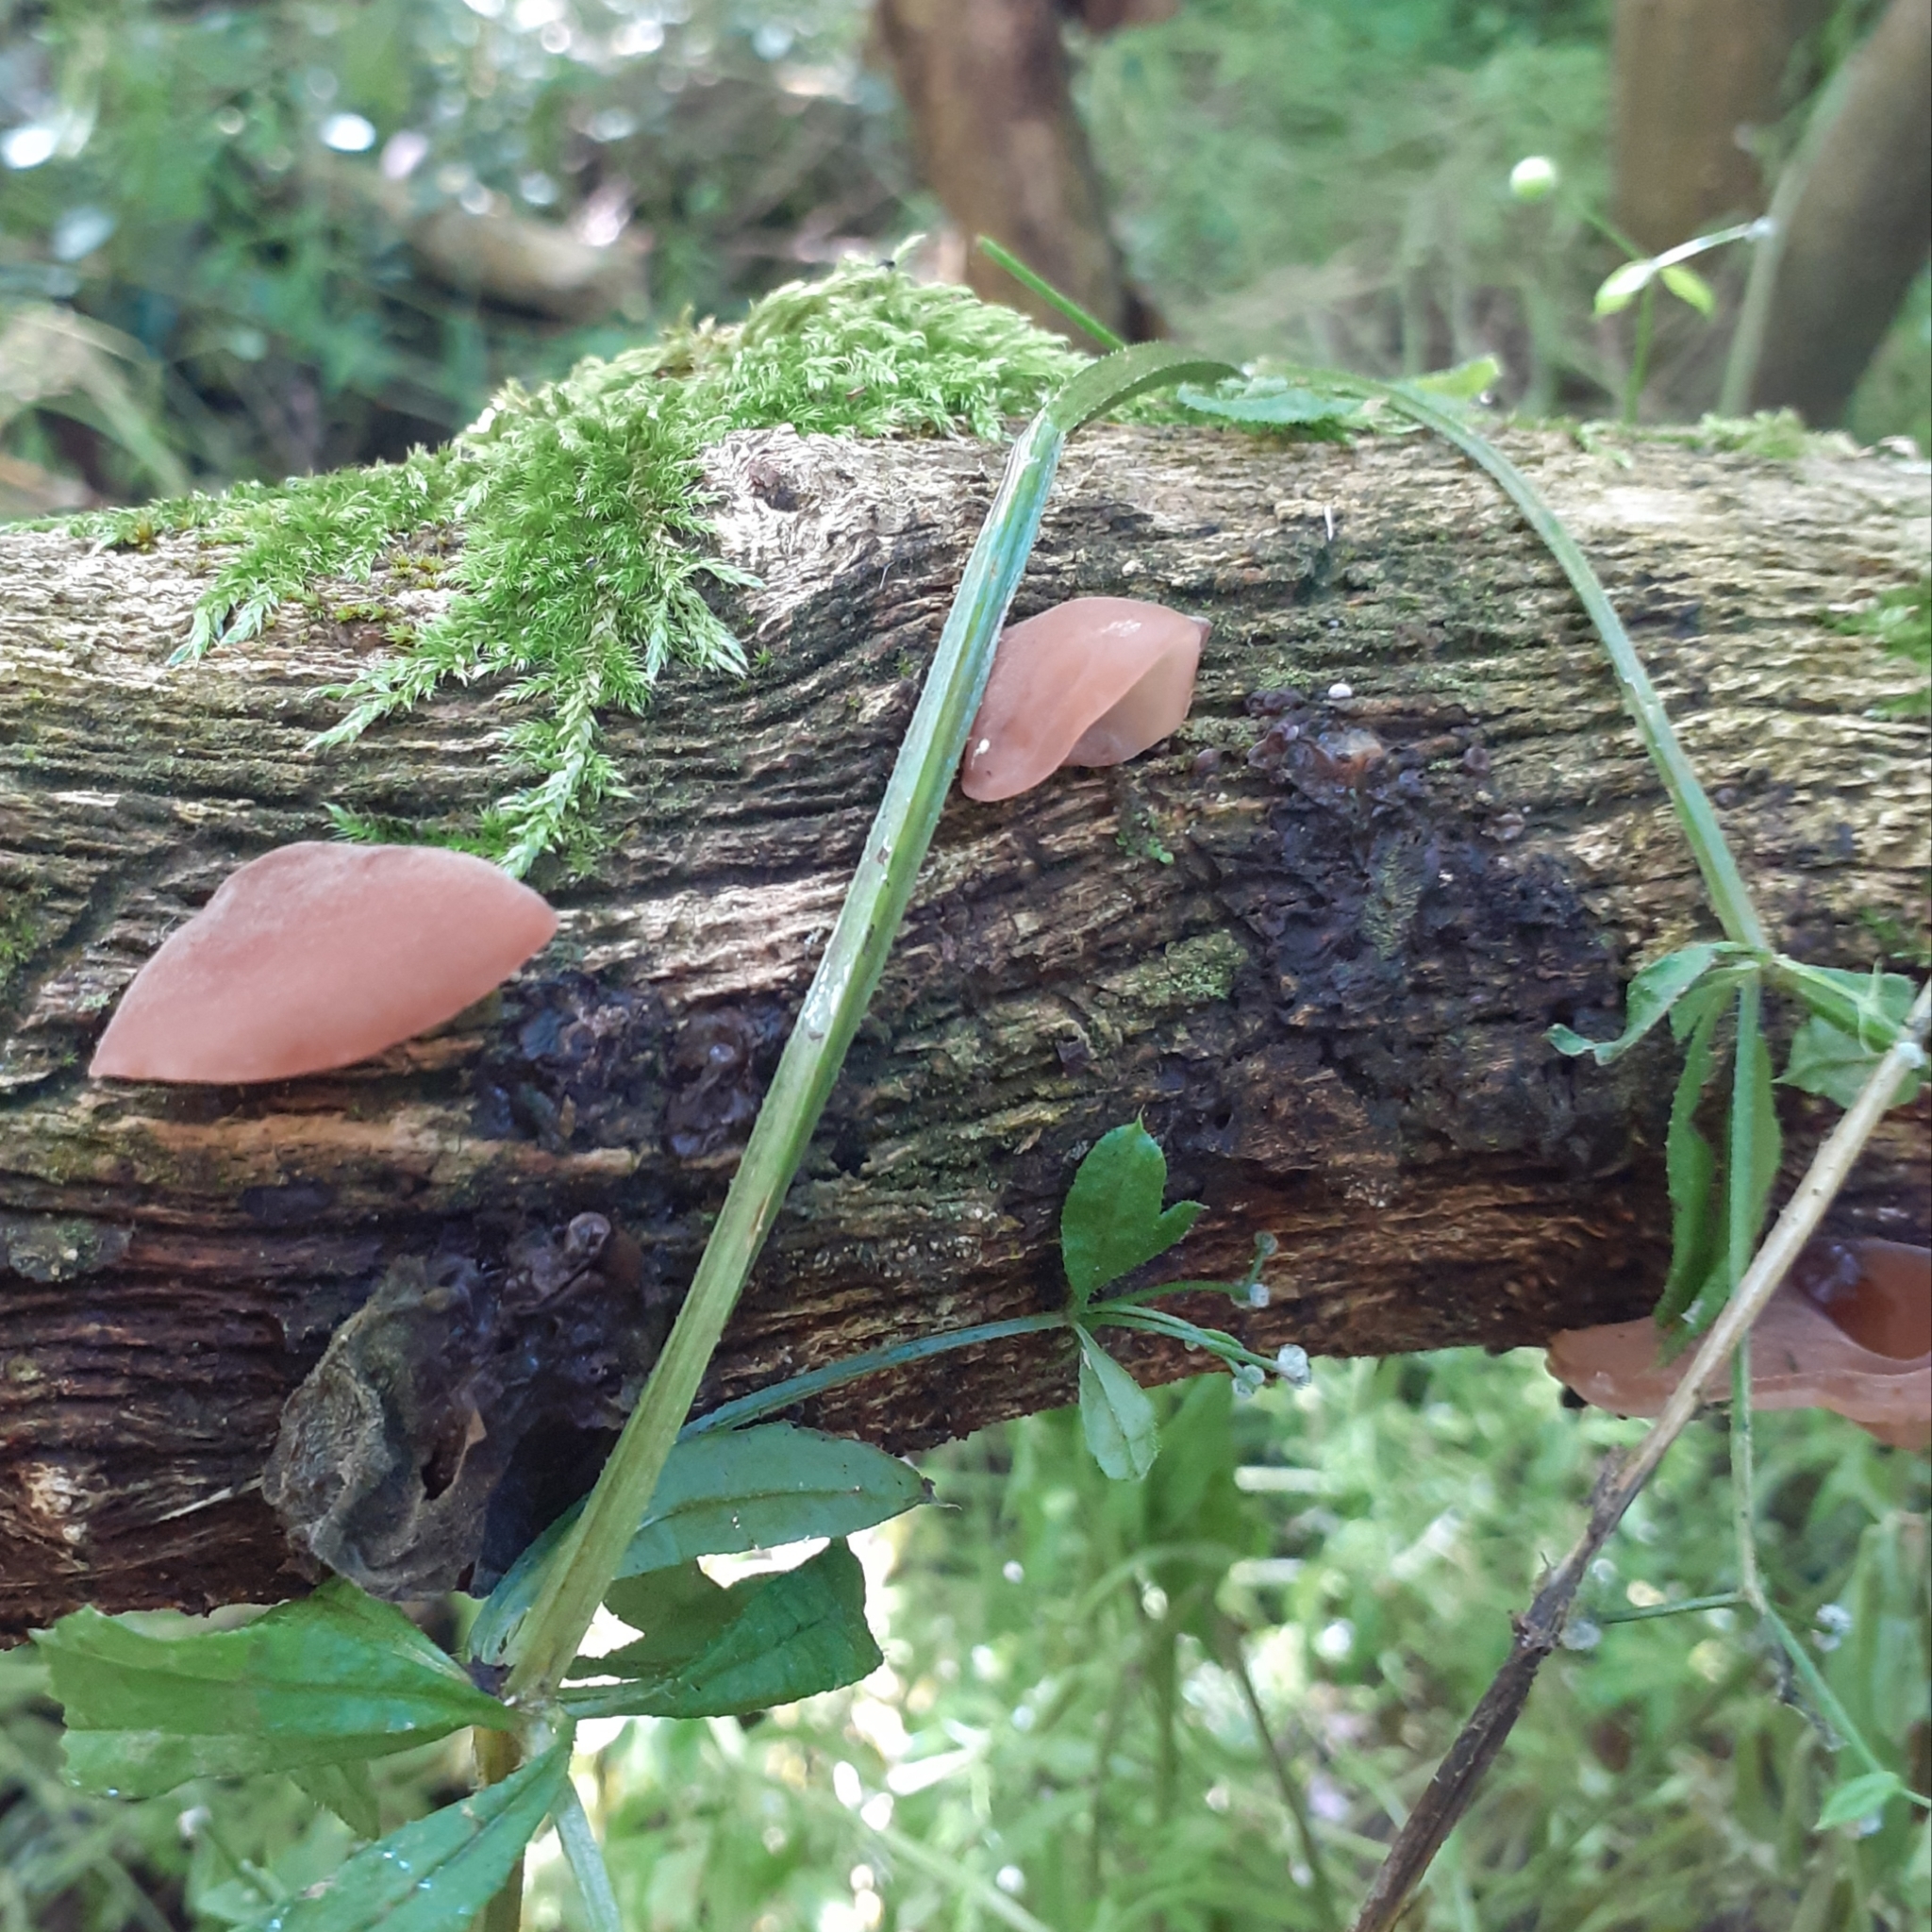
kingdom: Fungi
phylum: Basidiomycota
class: Agaricomycetes
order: Auriculariales
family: Auriculariaceae
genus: Auricularia
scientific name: Auricularia auricula-judae
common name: Jelly ear
